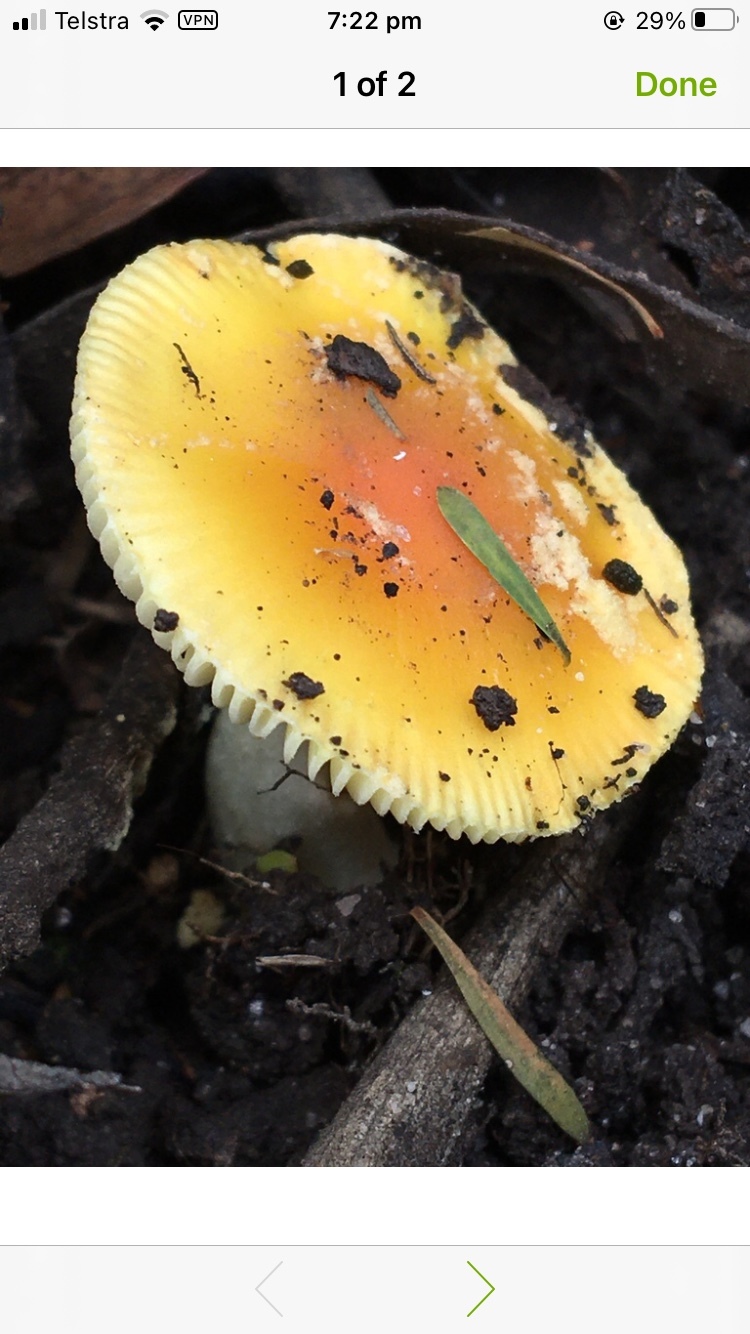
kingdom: Fungi
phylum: Basidiomycota
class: Agaricomycetes
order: Agaricales
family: Amanitaceae
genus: Amanita
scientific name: Amanita xanthocephala
